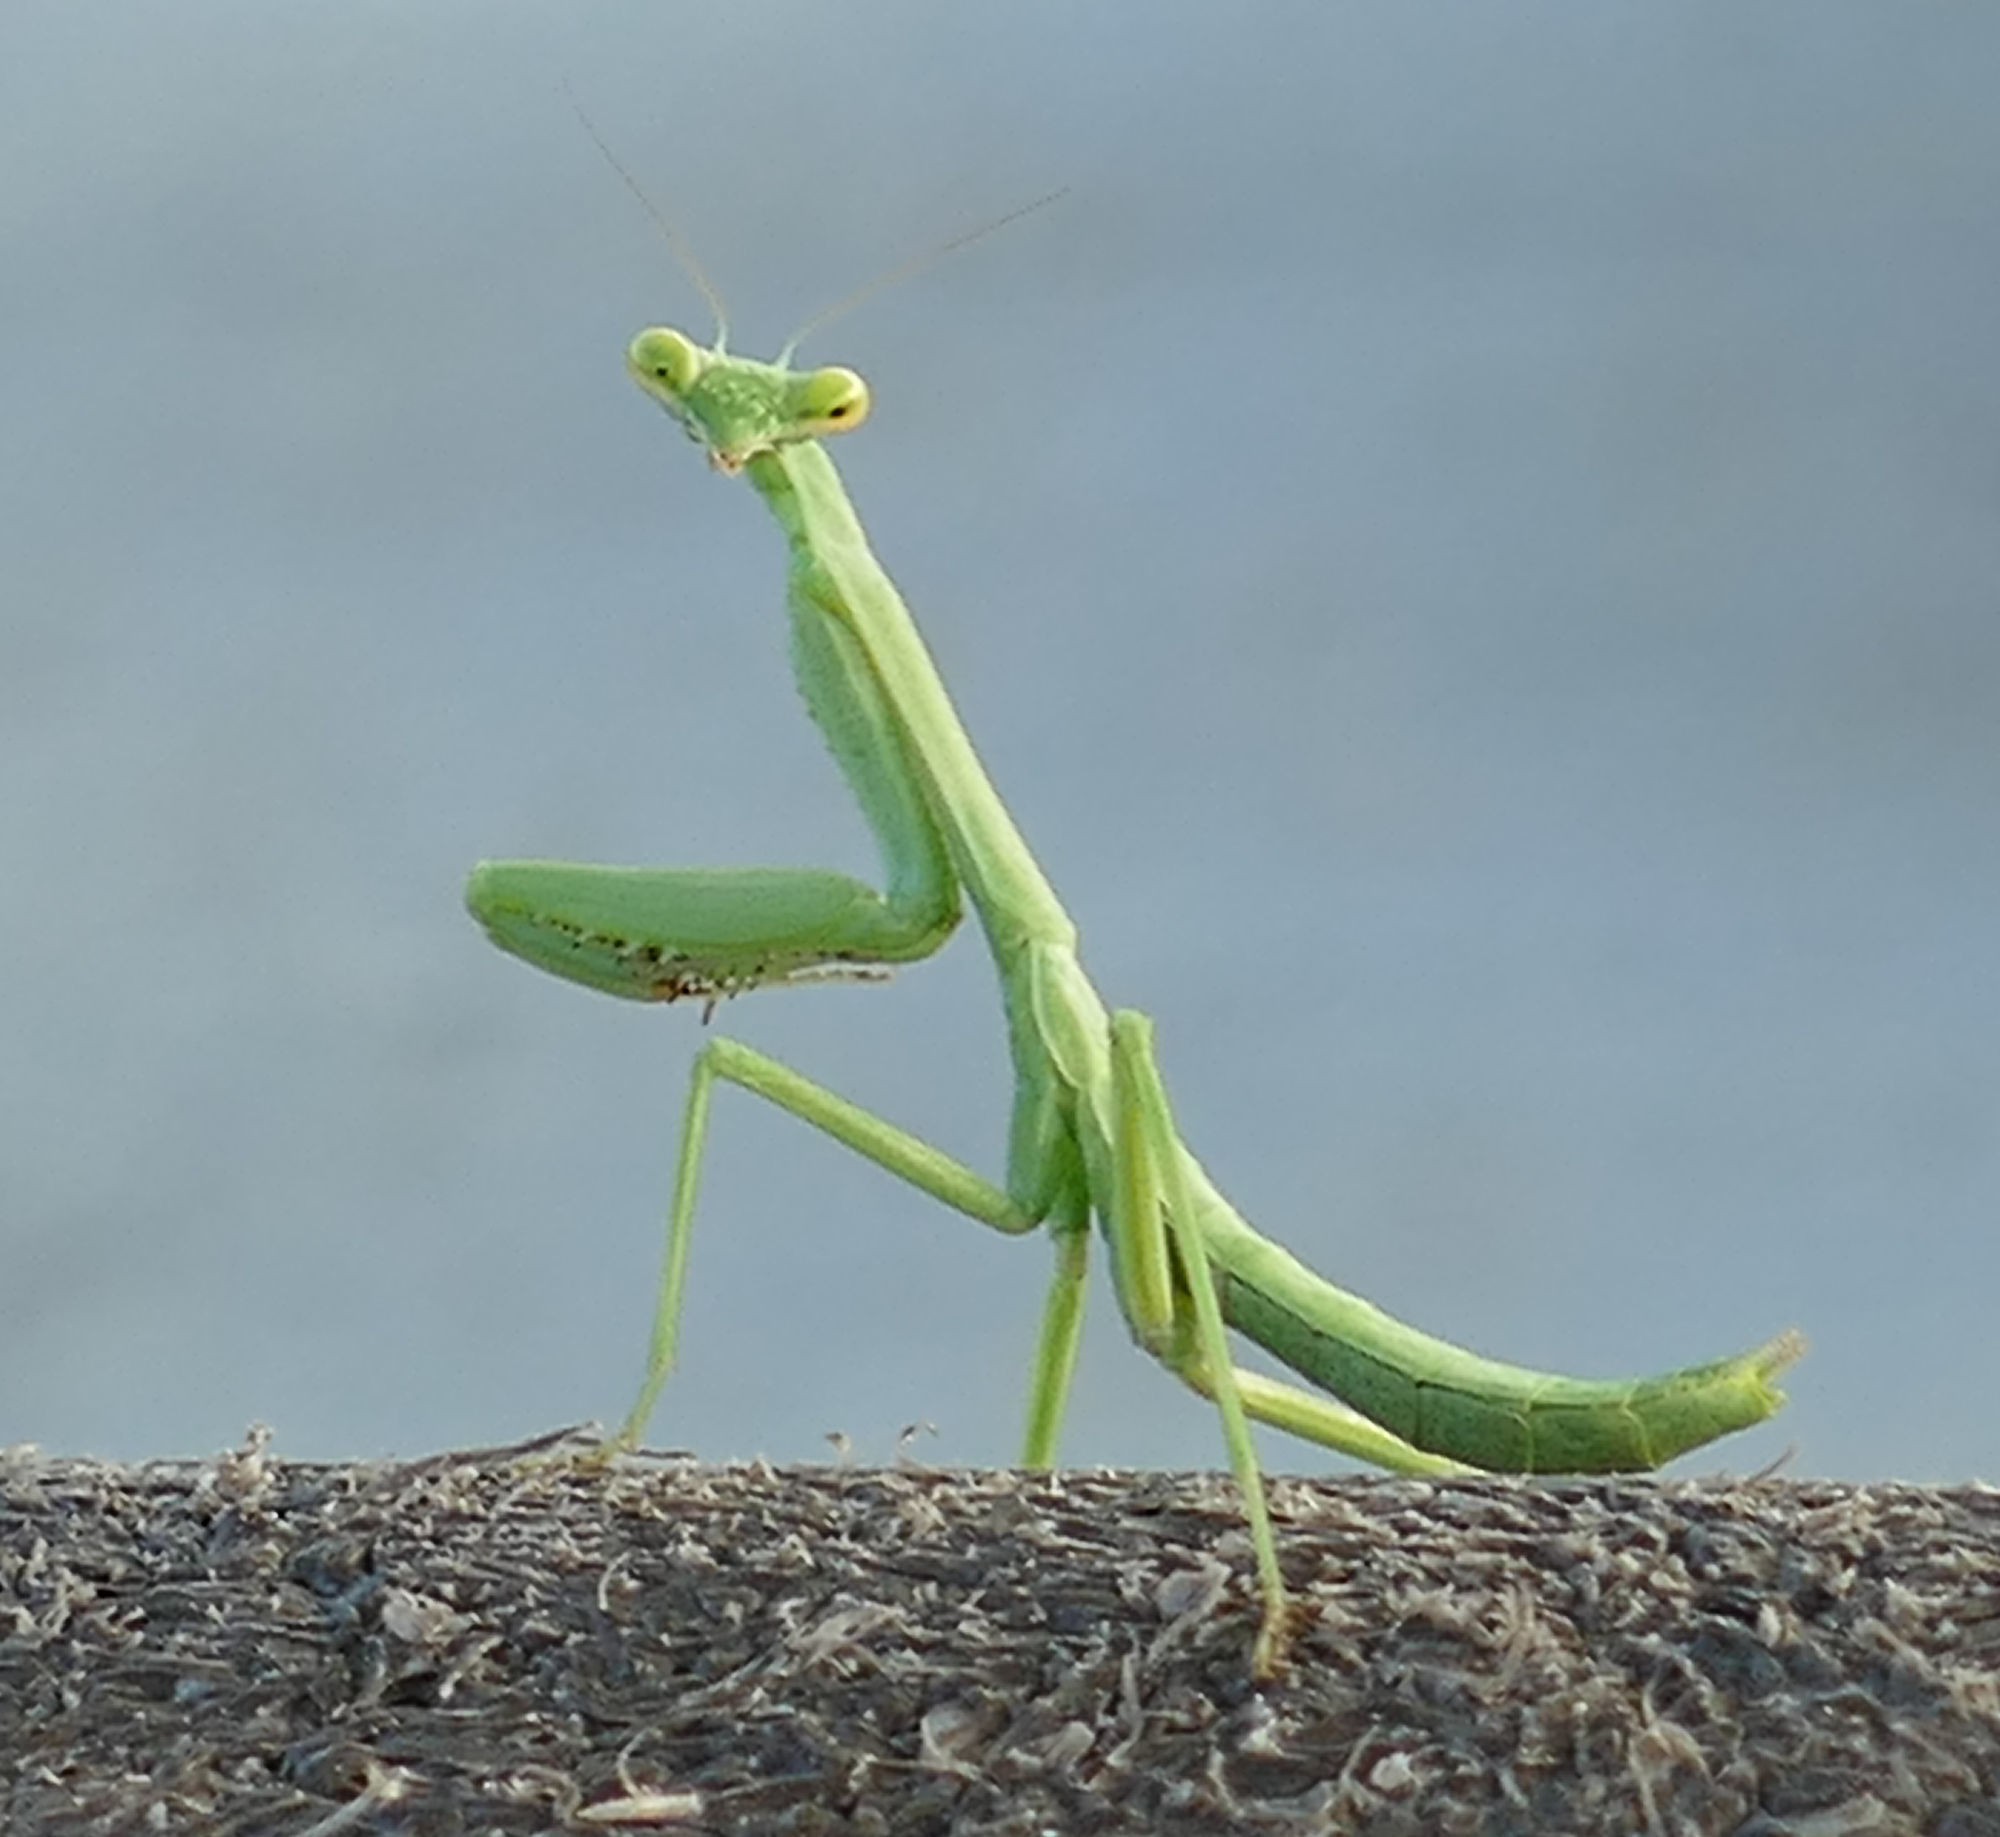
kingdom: Animalia
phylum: Arthropoda
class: Insecta
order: Mantodea
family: Mantidae
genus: Stagmomantis
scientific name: Stagmomantis carolina
